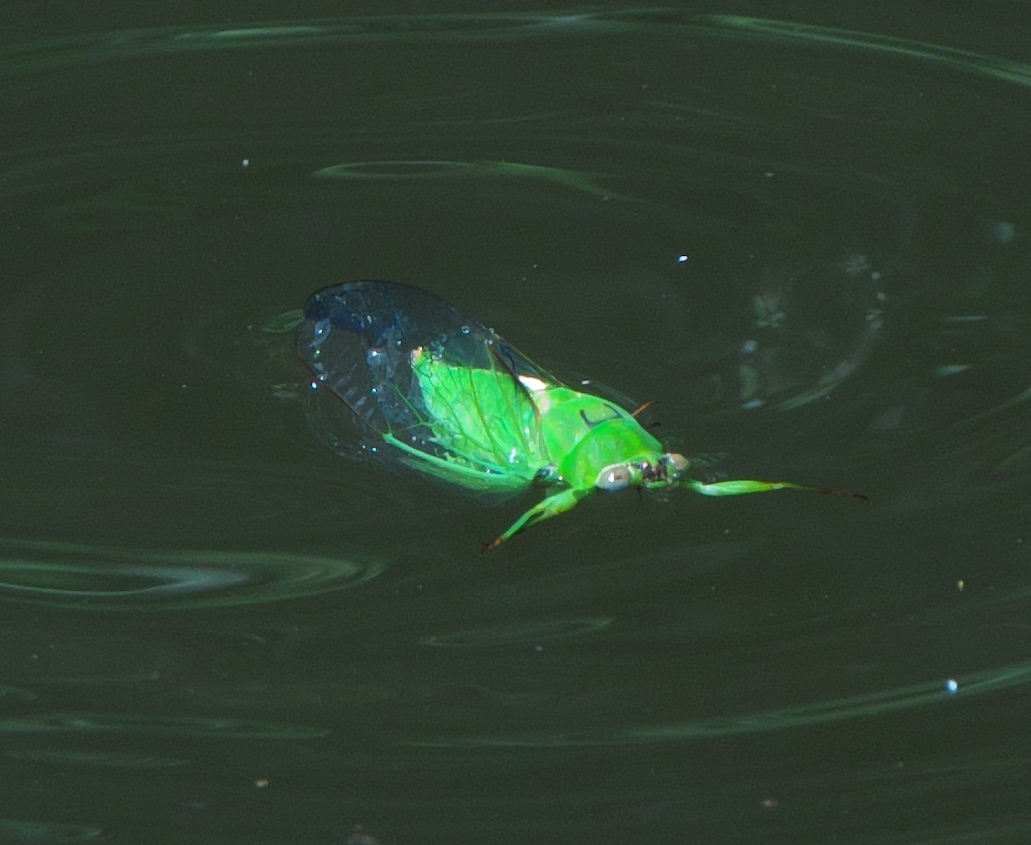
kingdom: Animalia
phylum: Arthropoda
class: Insecta
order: Hemiptera
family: Cicadidae
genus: Kikihia
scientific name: Kikihia ochrina
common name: April green cicada
